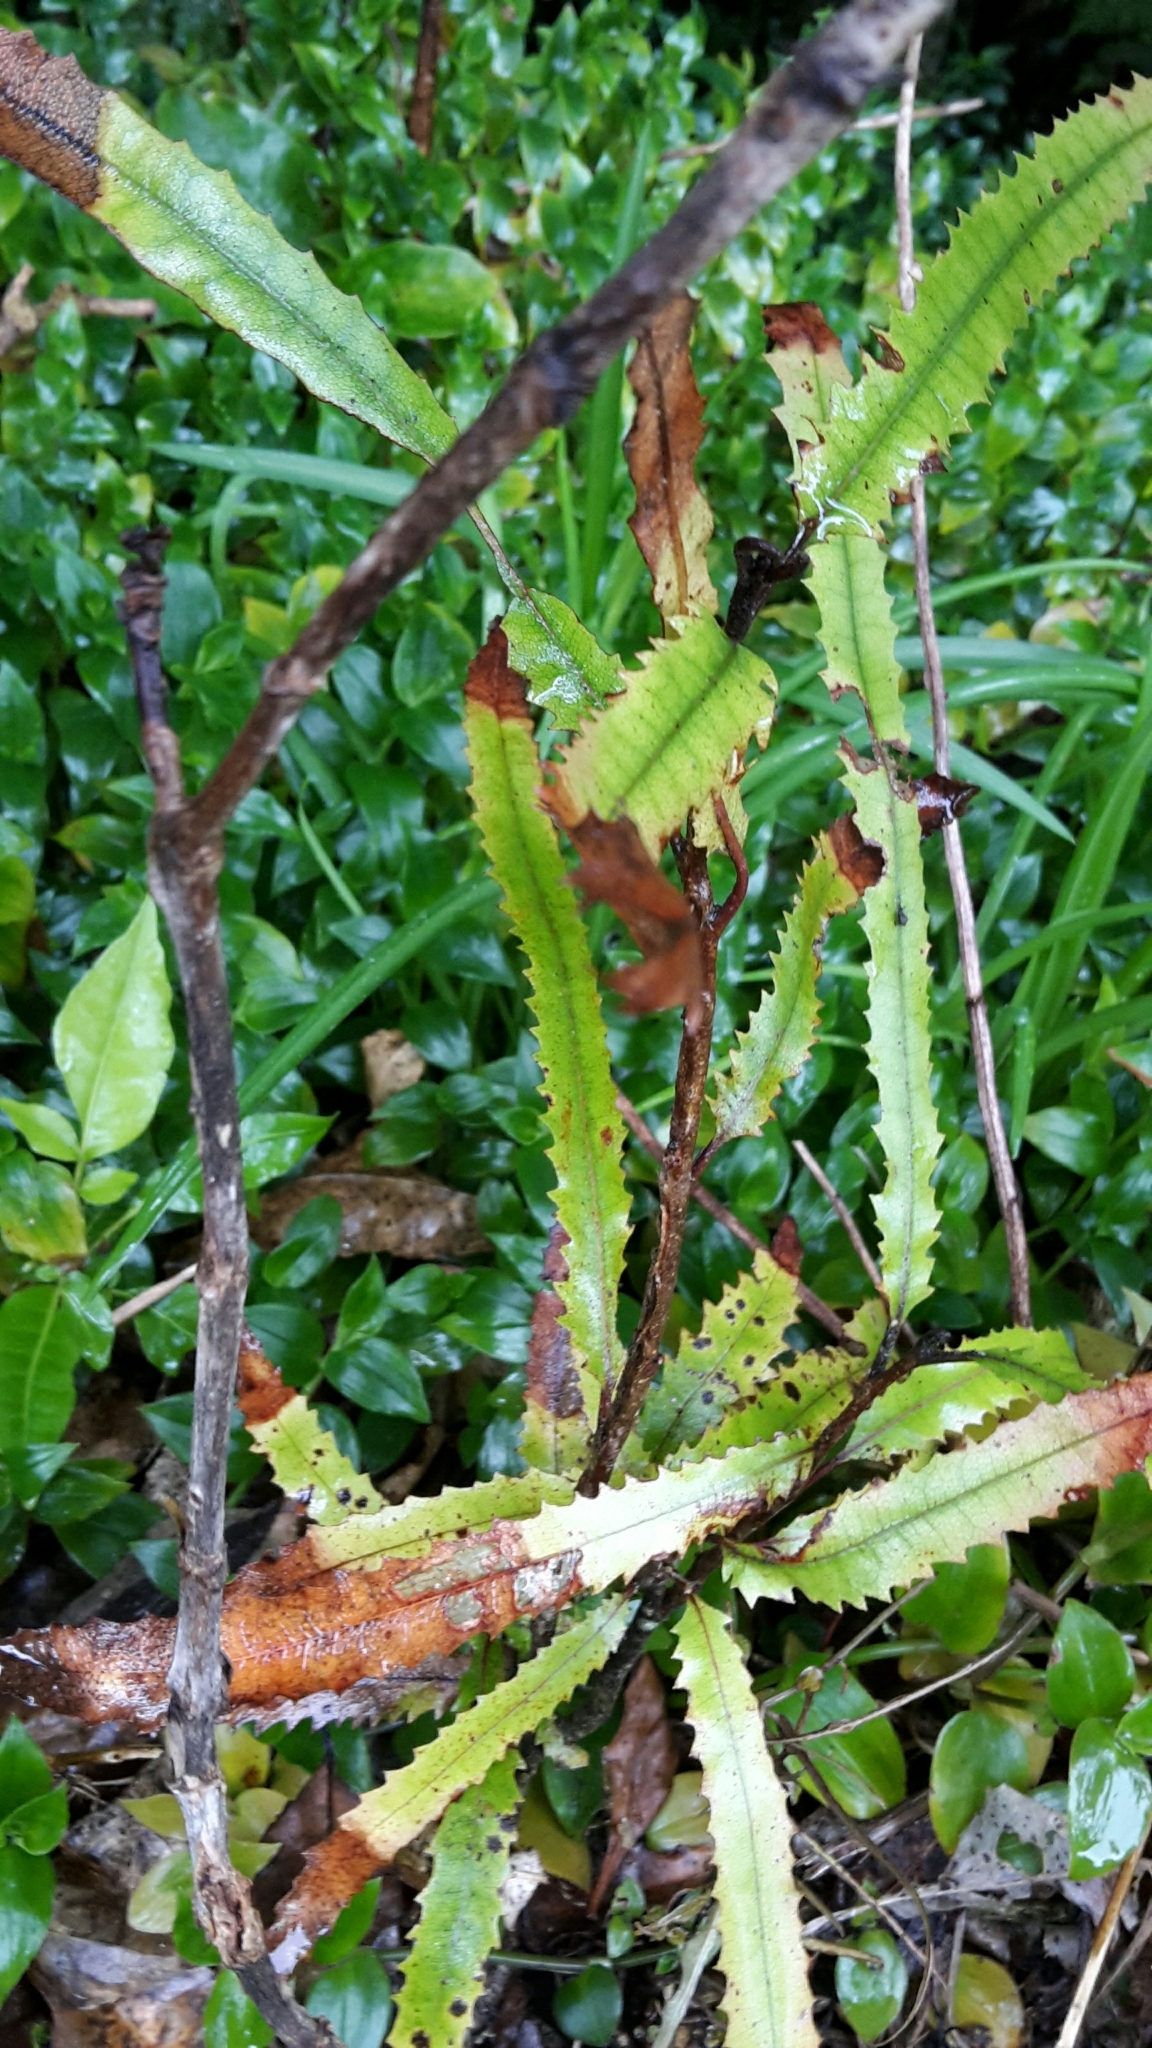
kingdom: Plantae
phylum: Tracheophyta
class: Magnoliopsida
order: Proteales
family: Proteaceae
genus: Knightia
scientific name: Knightia excelsa
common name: New zealand-honeysuckle
